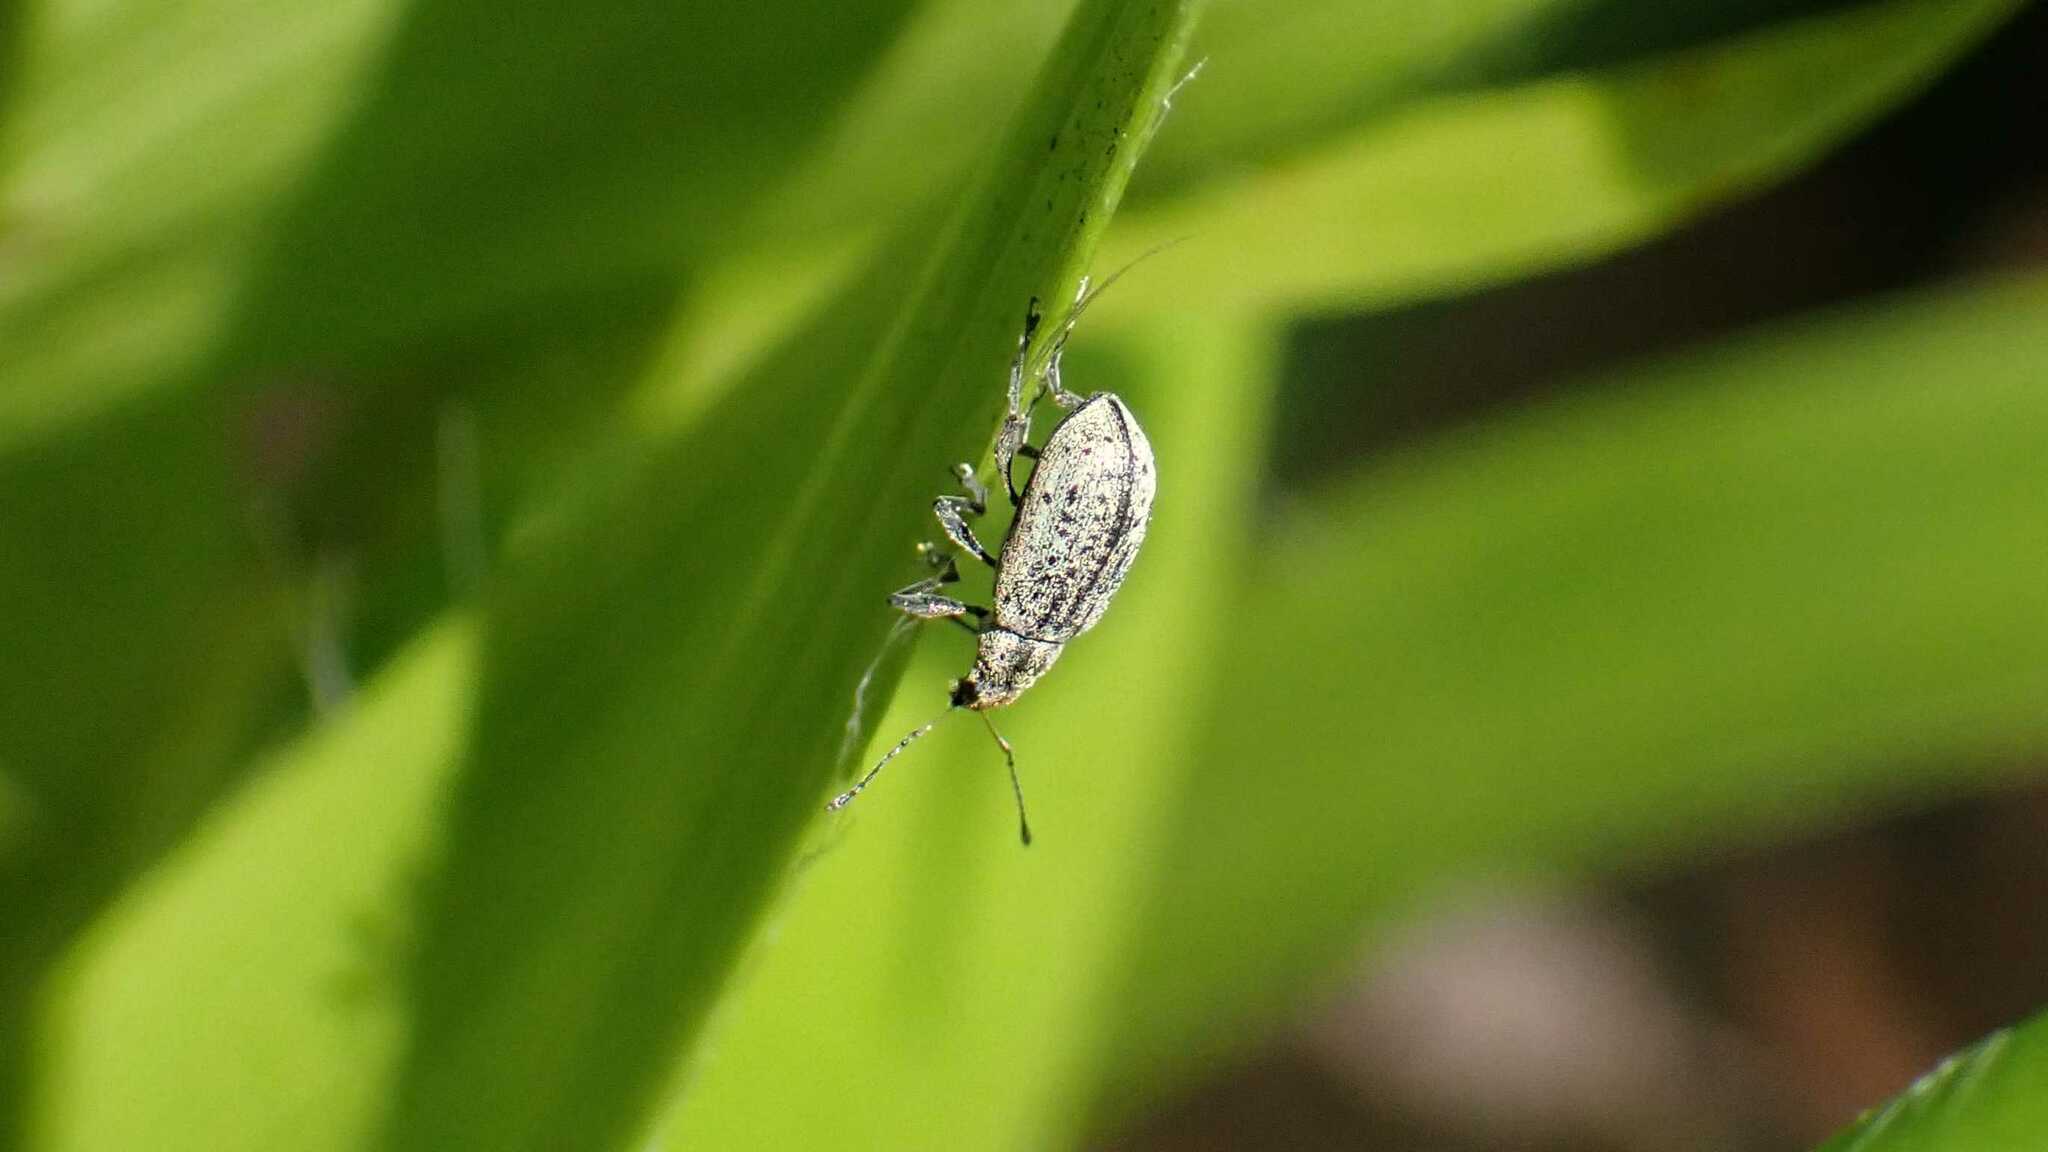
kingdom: Animalia
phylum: Arthropoda
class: Insecta
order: Coleoptera
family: Curculionidae
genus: Polydrusus
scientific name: Polydrusus cervinus
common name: Weevil
